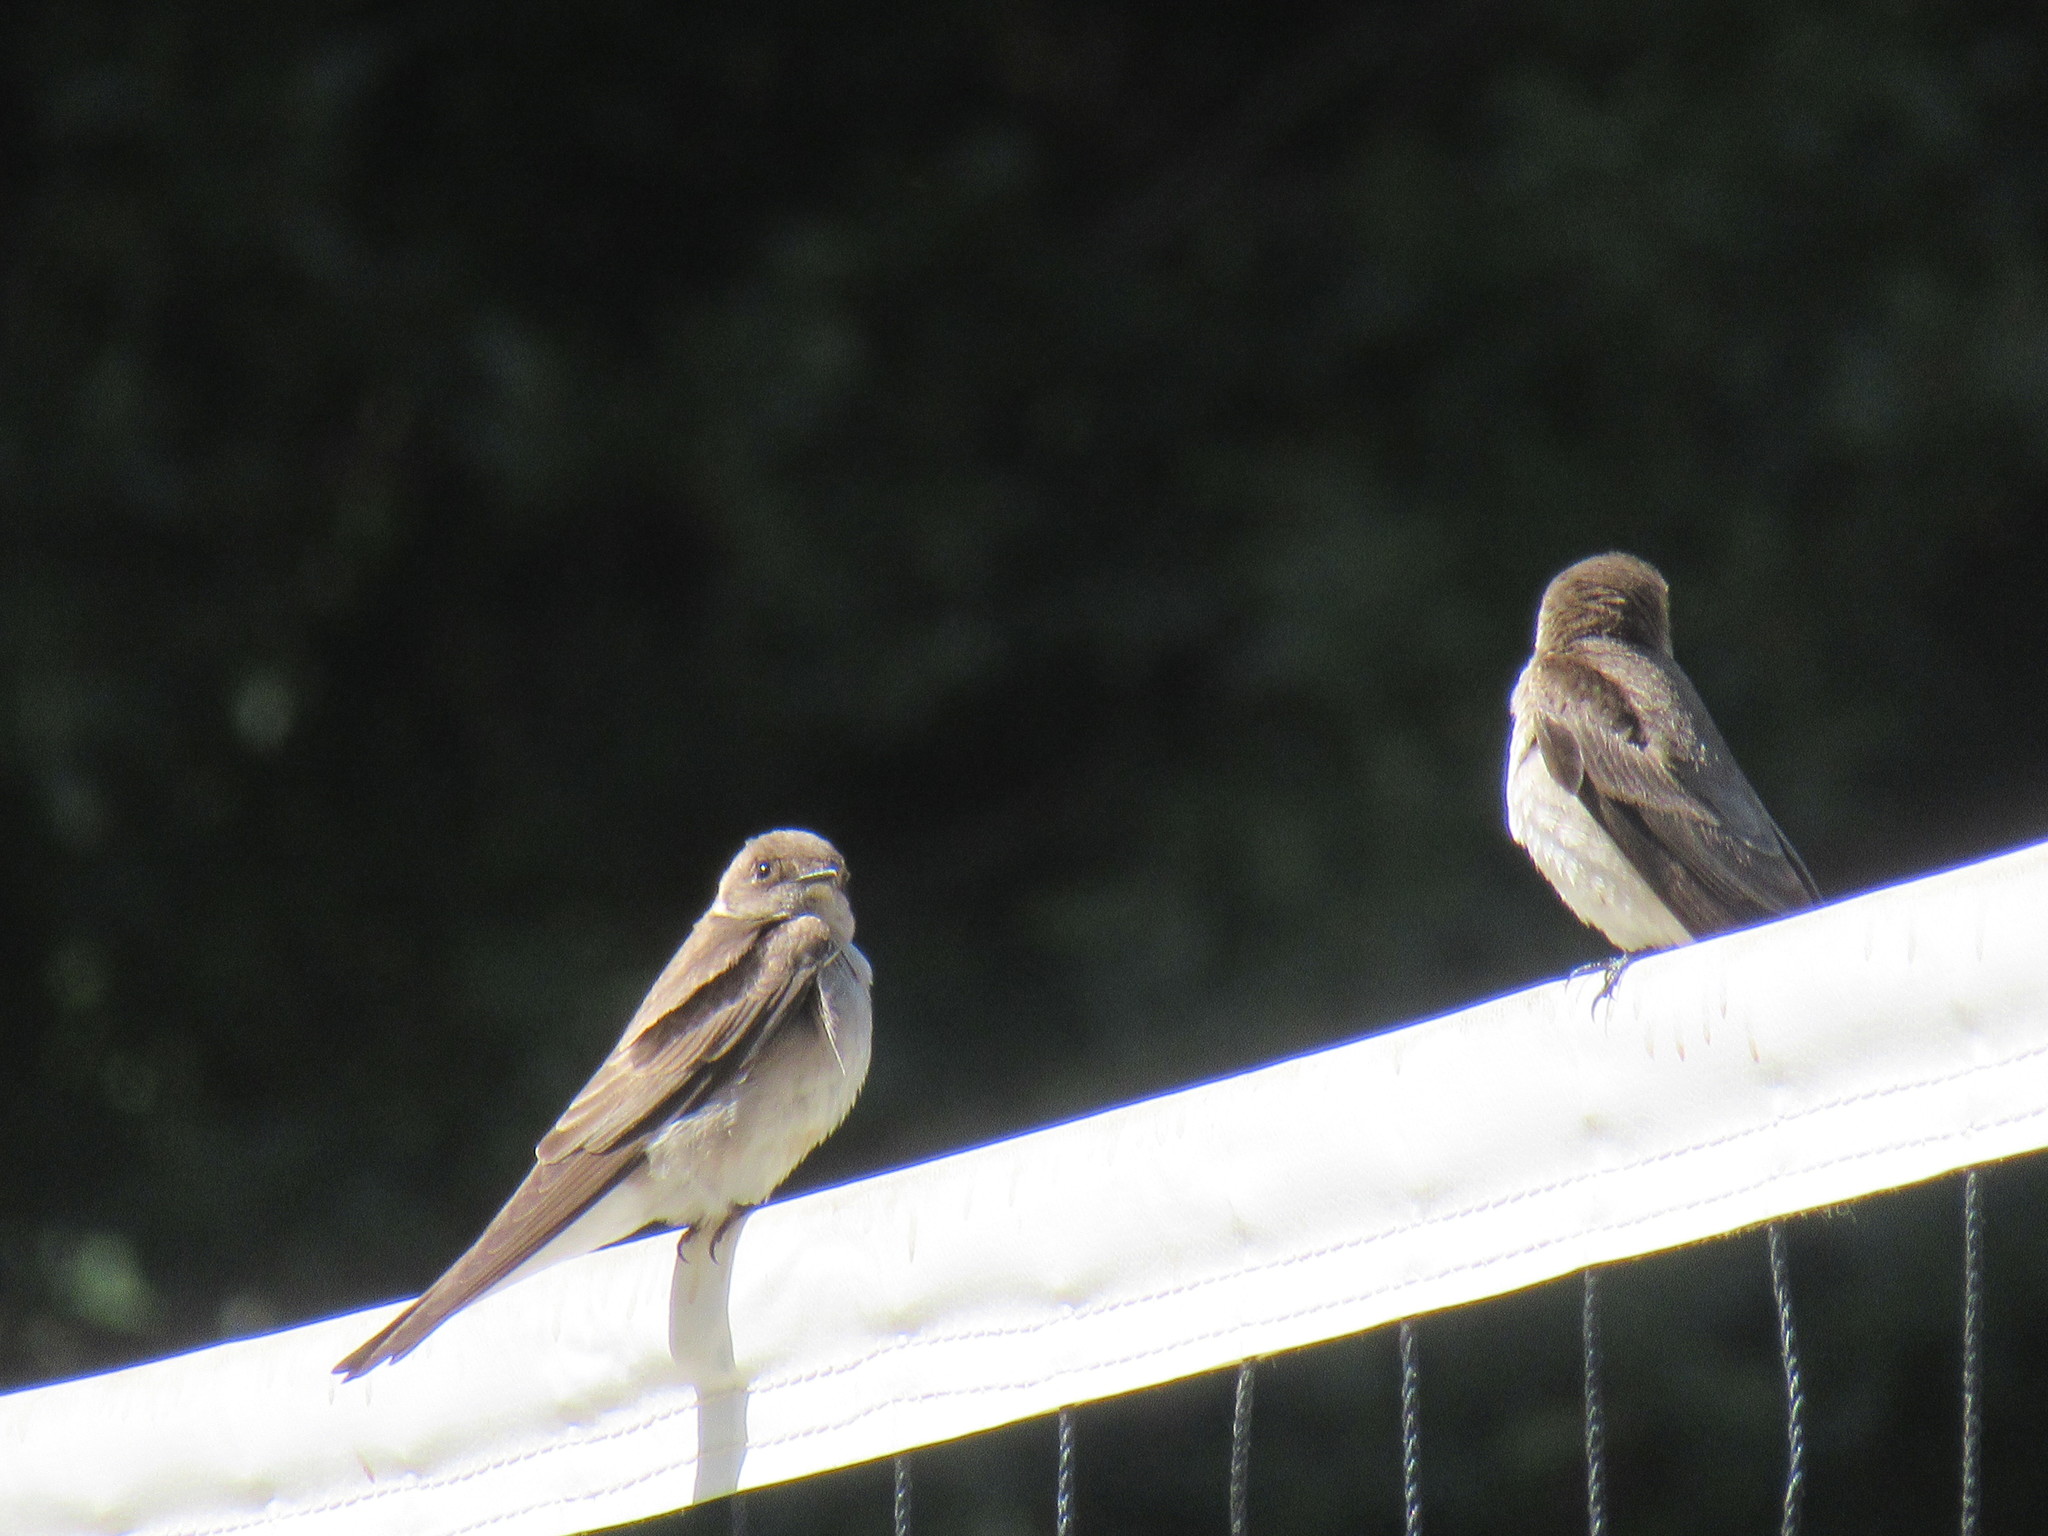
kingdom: Animalia
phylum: Chordata
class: Aves
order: Passeriformes
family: Hirundinidae
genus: Stelgidopteryx
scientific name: Stelgidopteryx serripennis
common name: Northern rough-winged swallow
